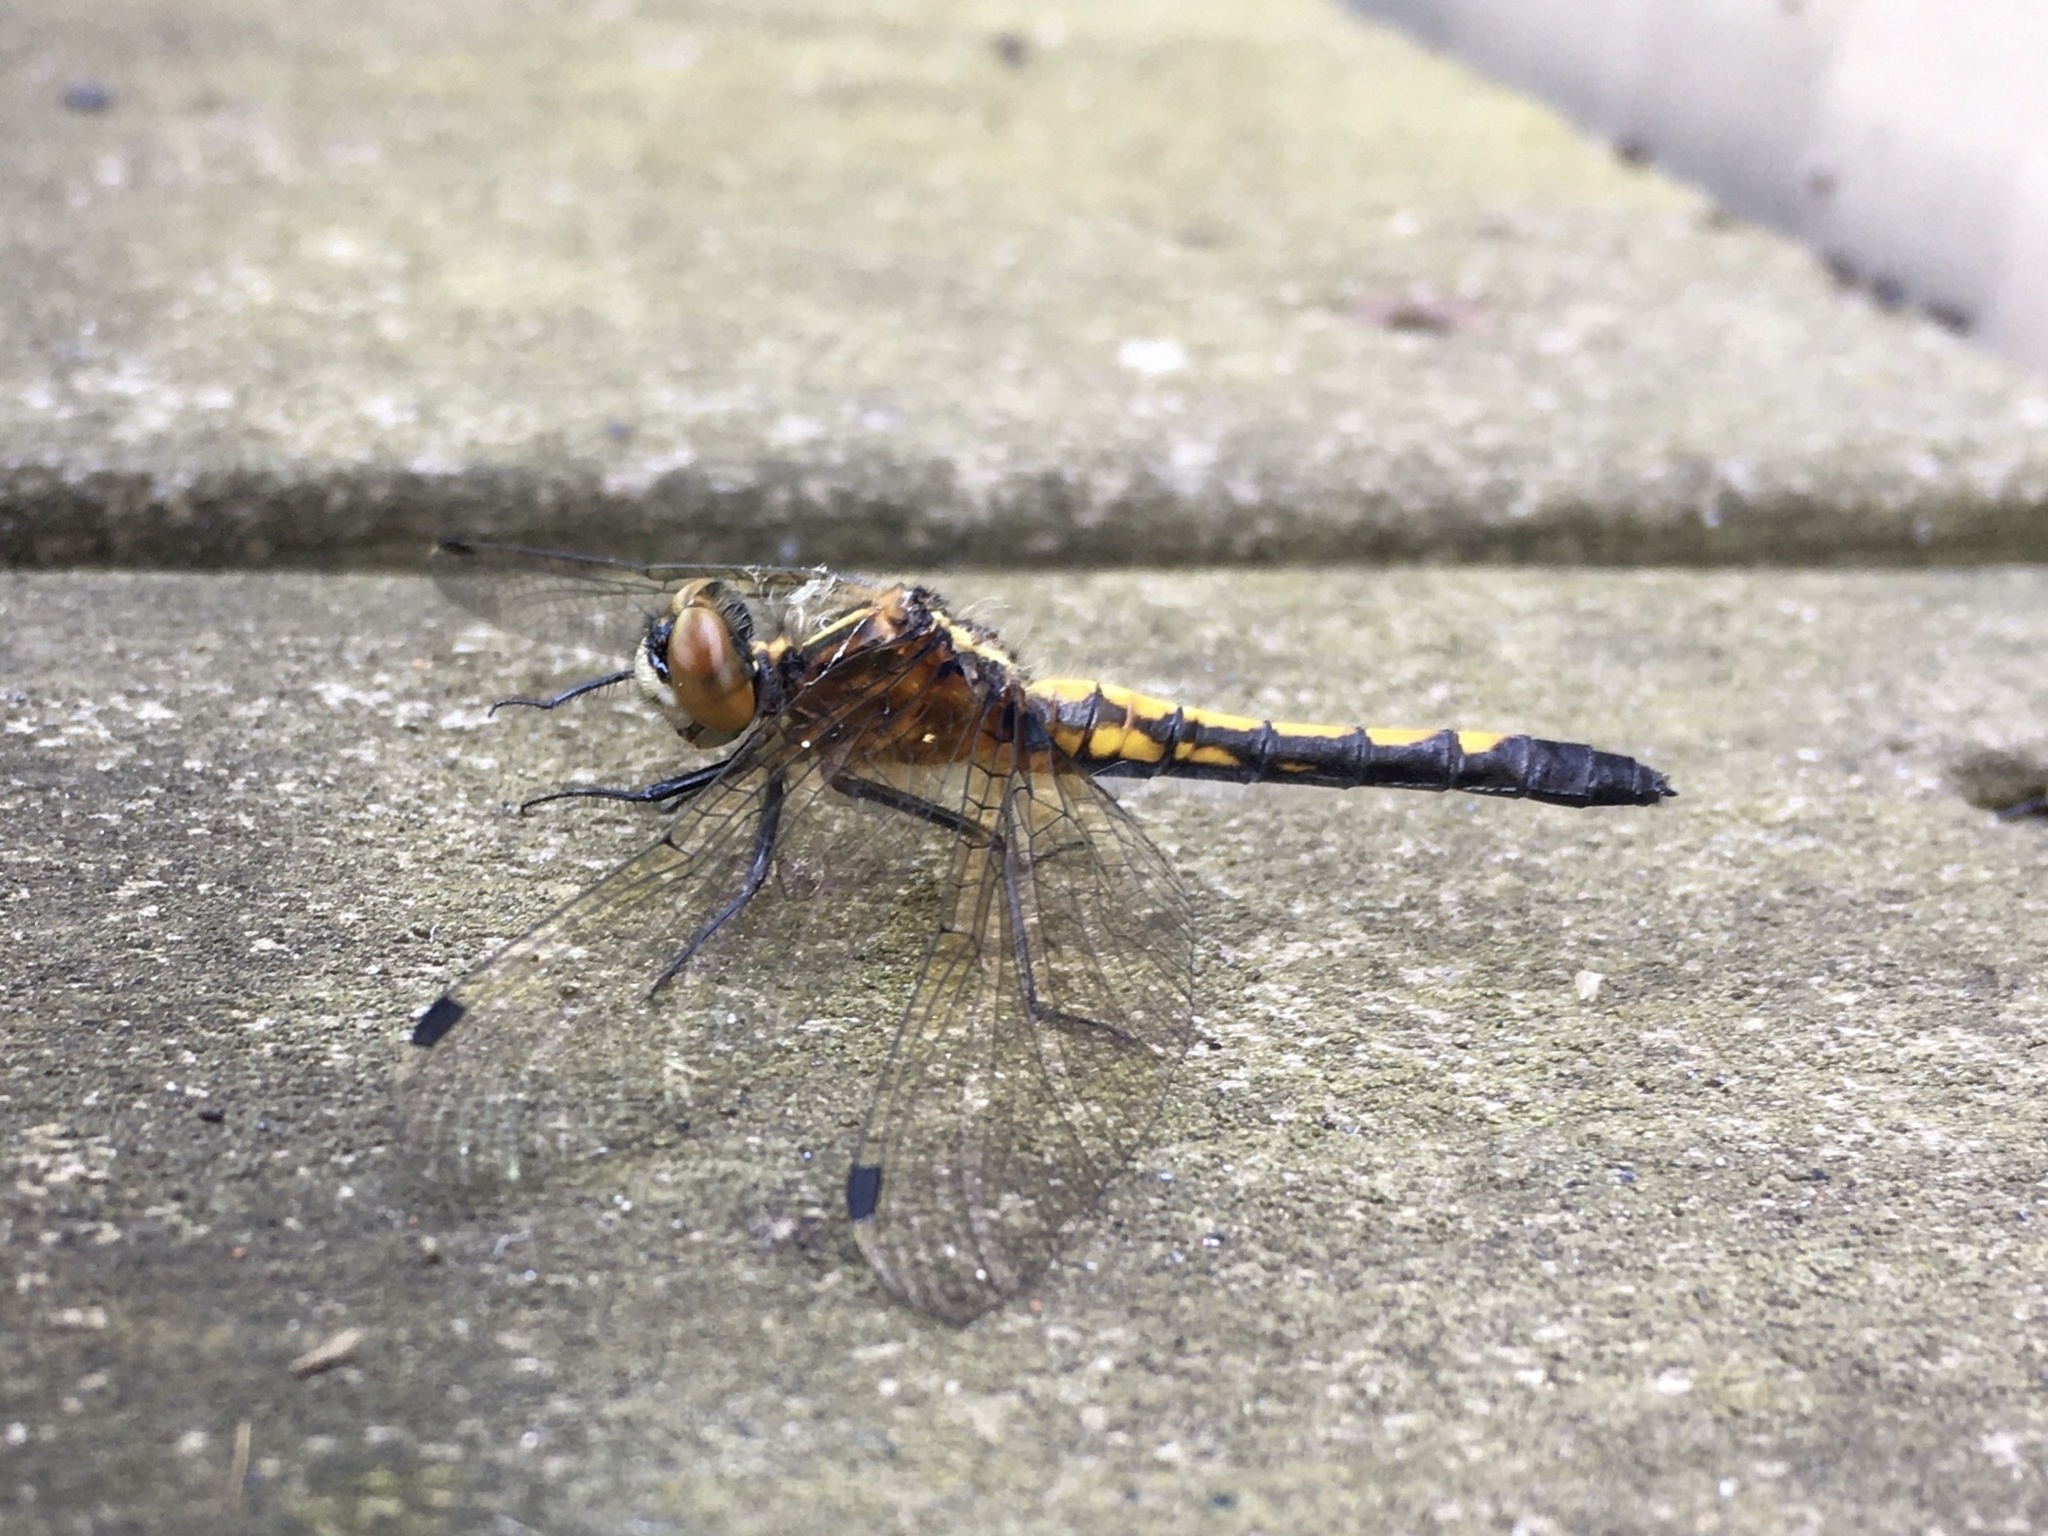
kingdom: Animalia
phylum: Arthropoda
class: Insecta
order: Odonata
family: Libellulidae
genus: Leucorrhinia
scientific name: Leucorrhinia intacta
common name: Dot-tailed whiteface
